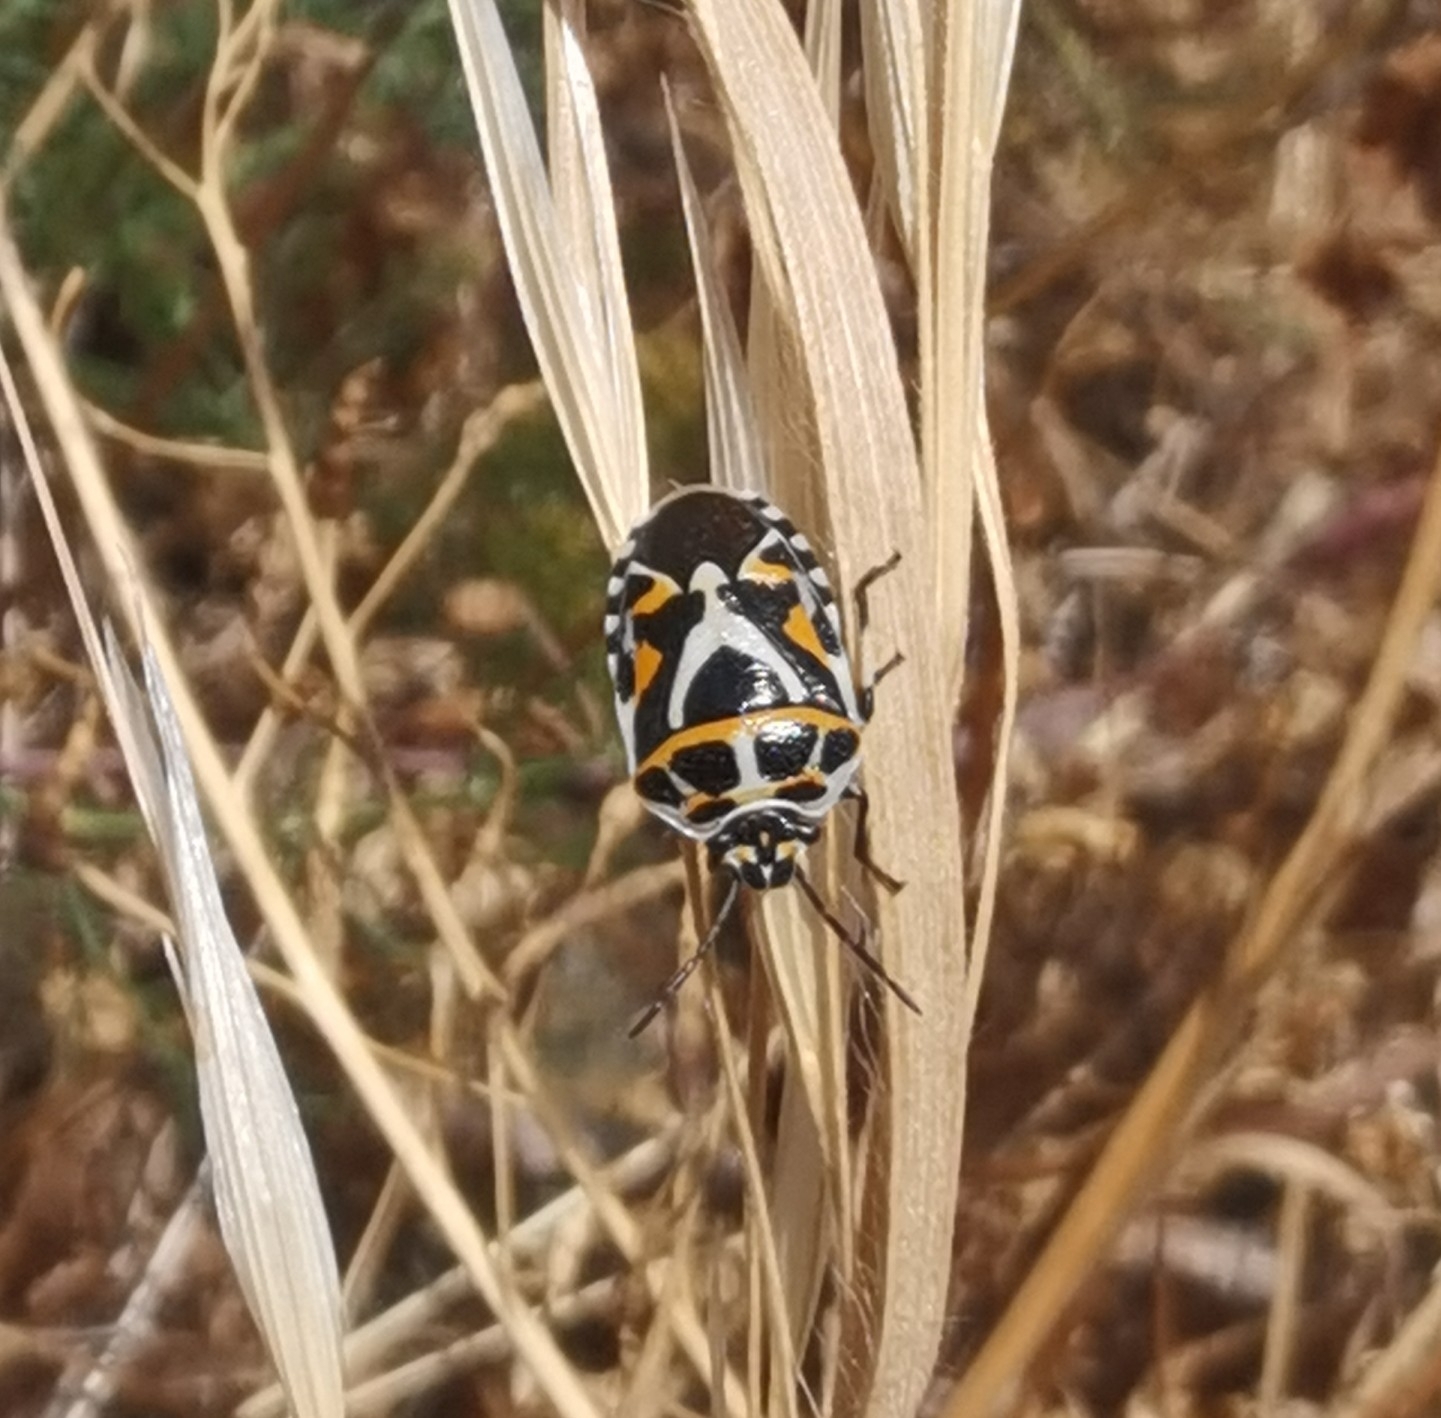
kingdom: Animalia
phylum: Arthropoda
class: Insecta
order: Hemiptera
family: Pentatomidae
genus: Eurydema
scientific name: Eurydema ornata
